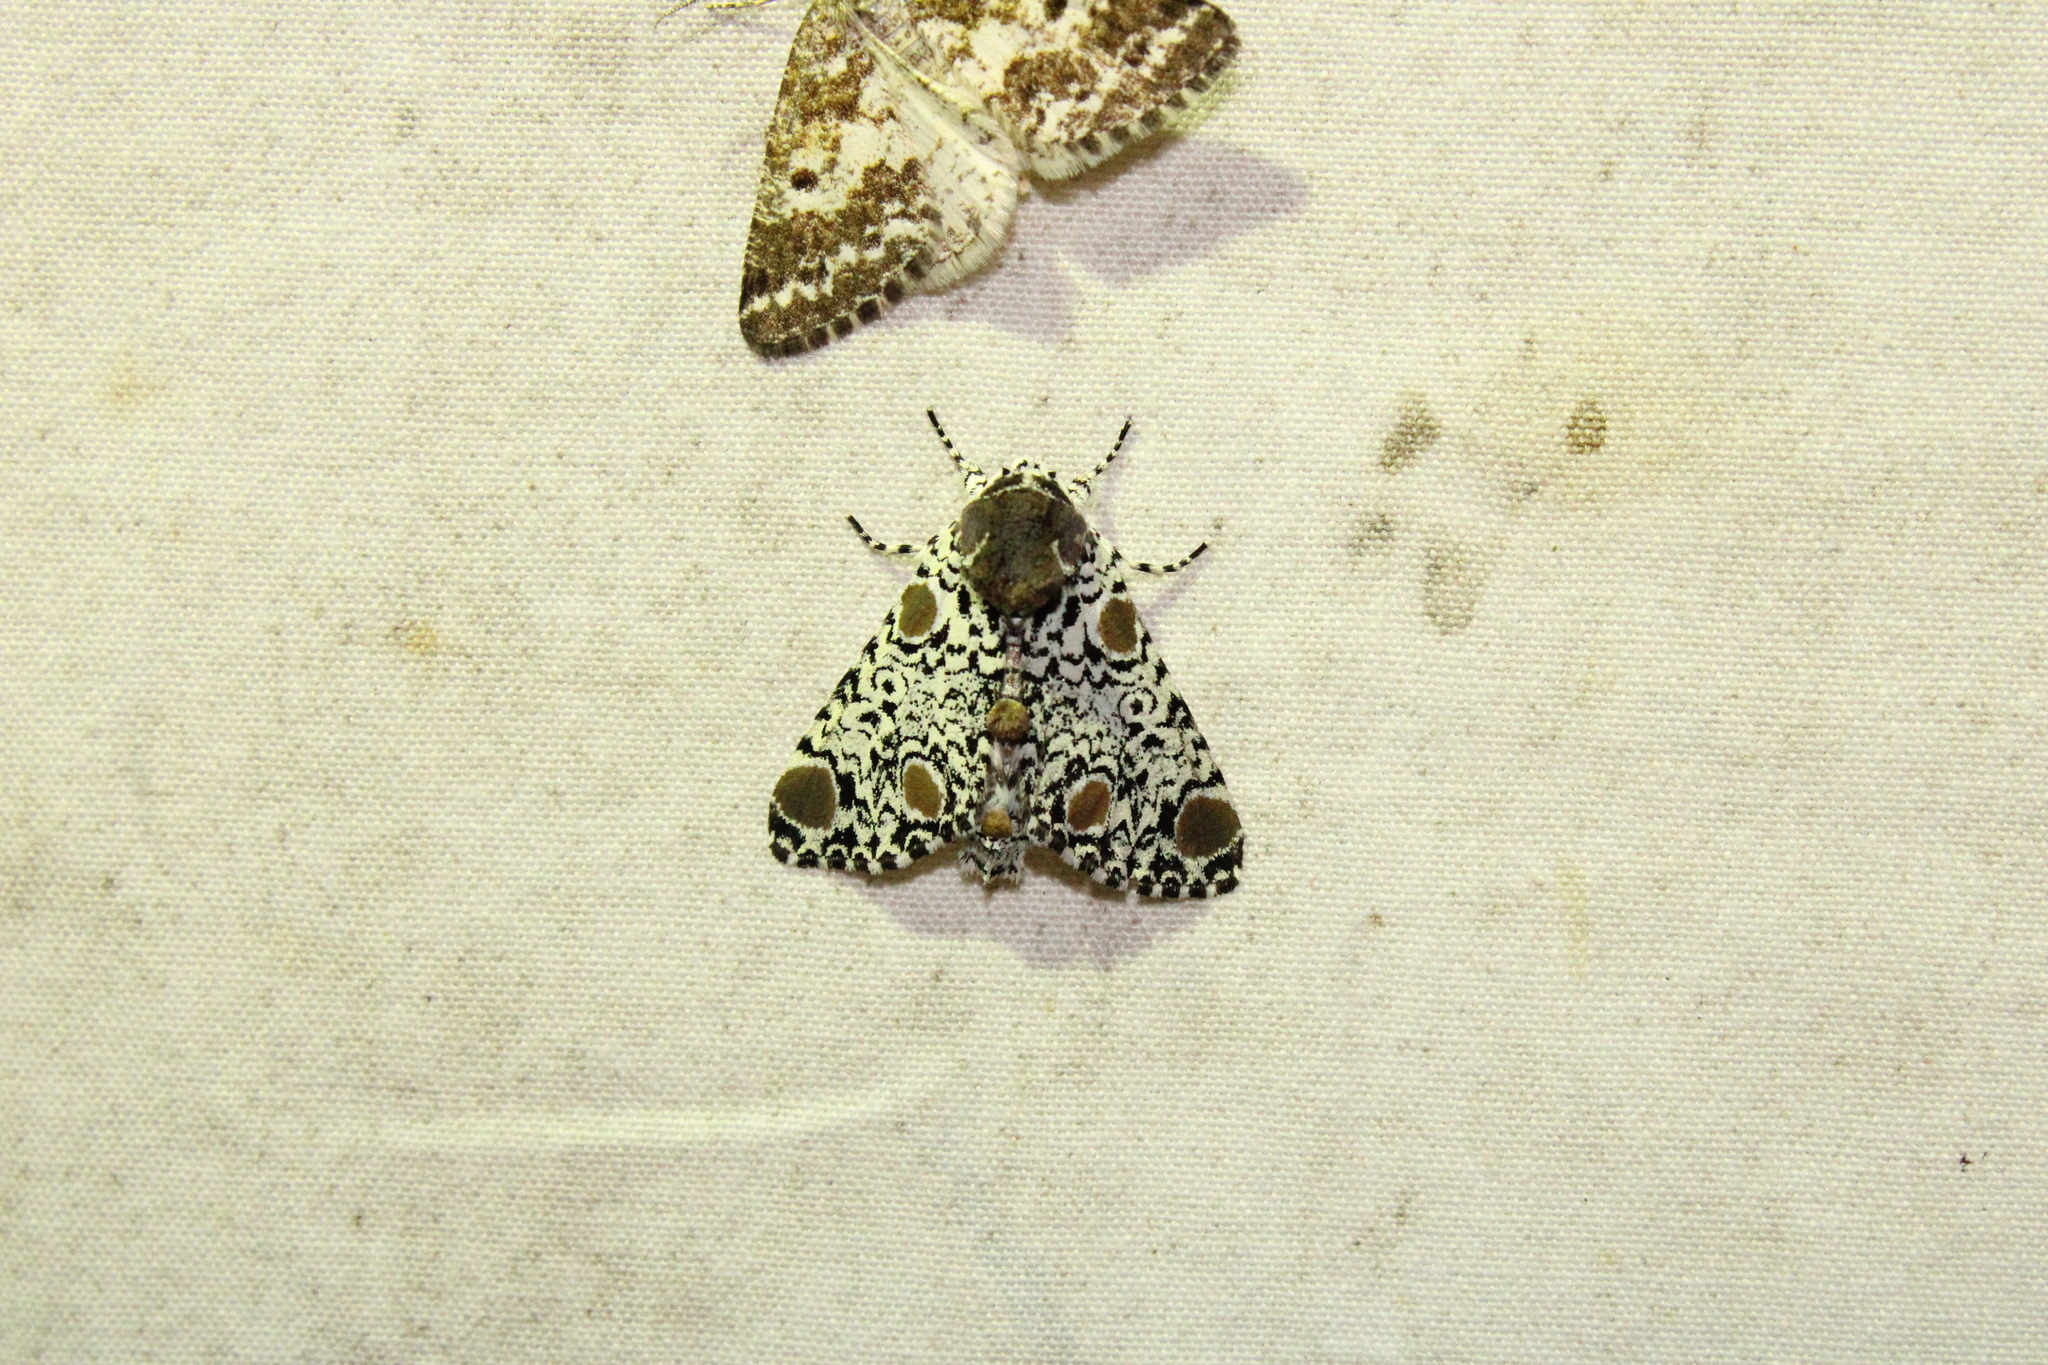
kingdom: Animalia
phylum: Arthropoda
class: Insecta
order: Lepidoptera
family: Noctuidae
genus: Harrisimemna
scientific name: Harrisimemna trisignata
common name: Harris threespot
